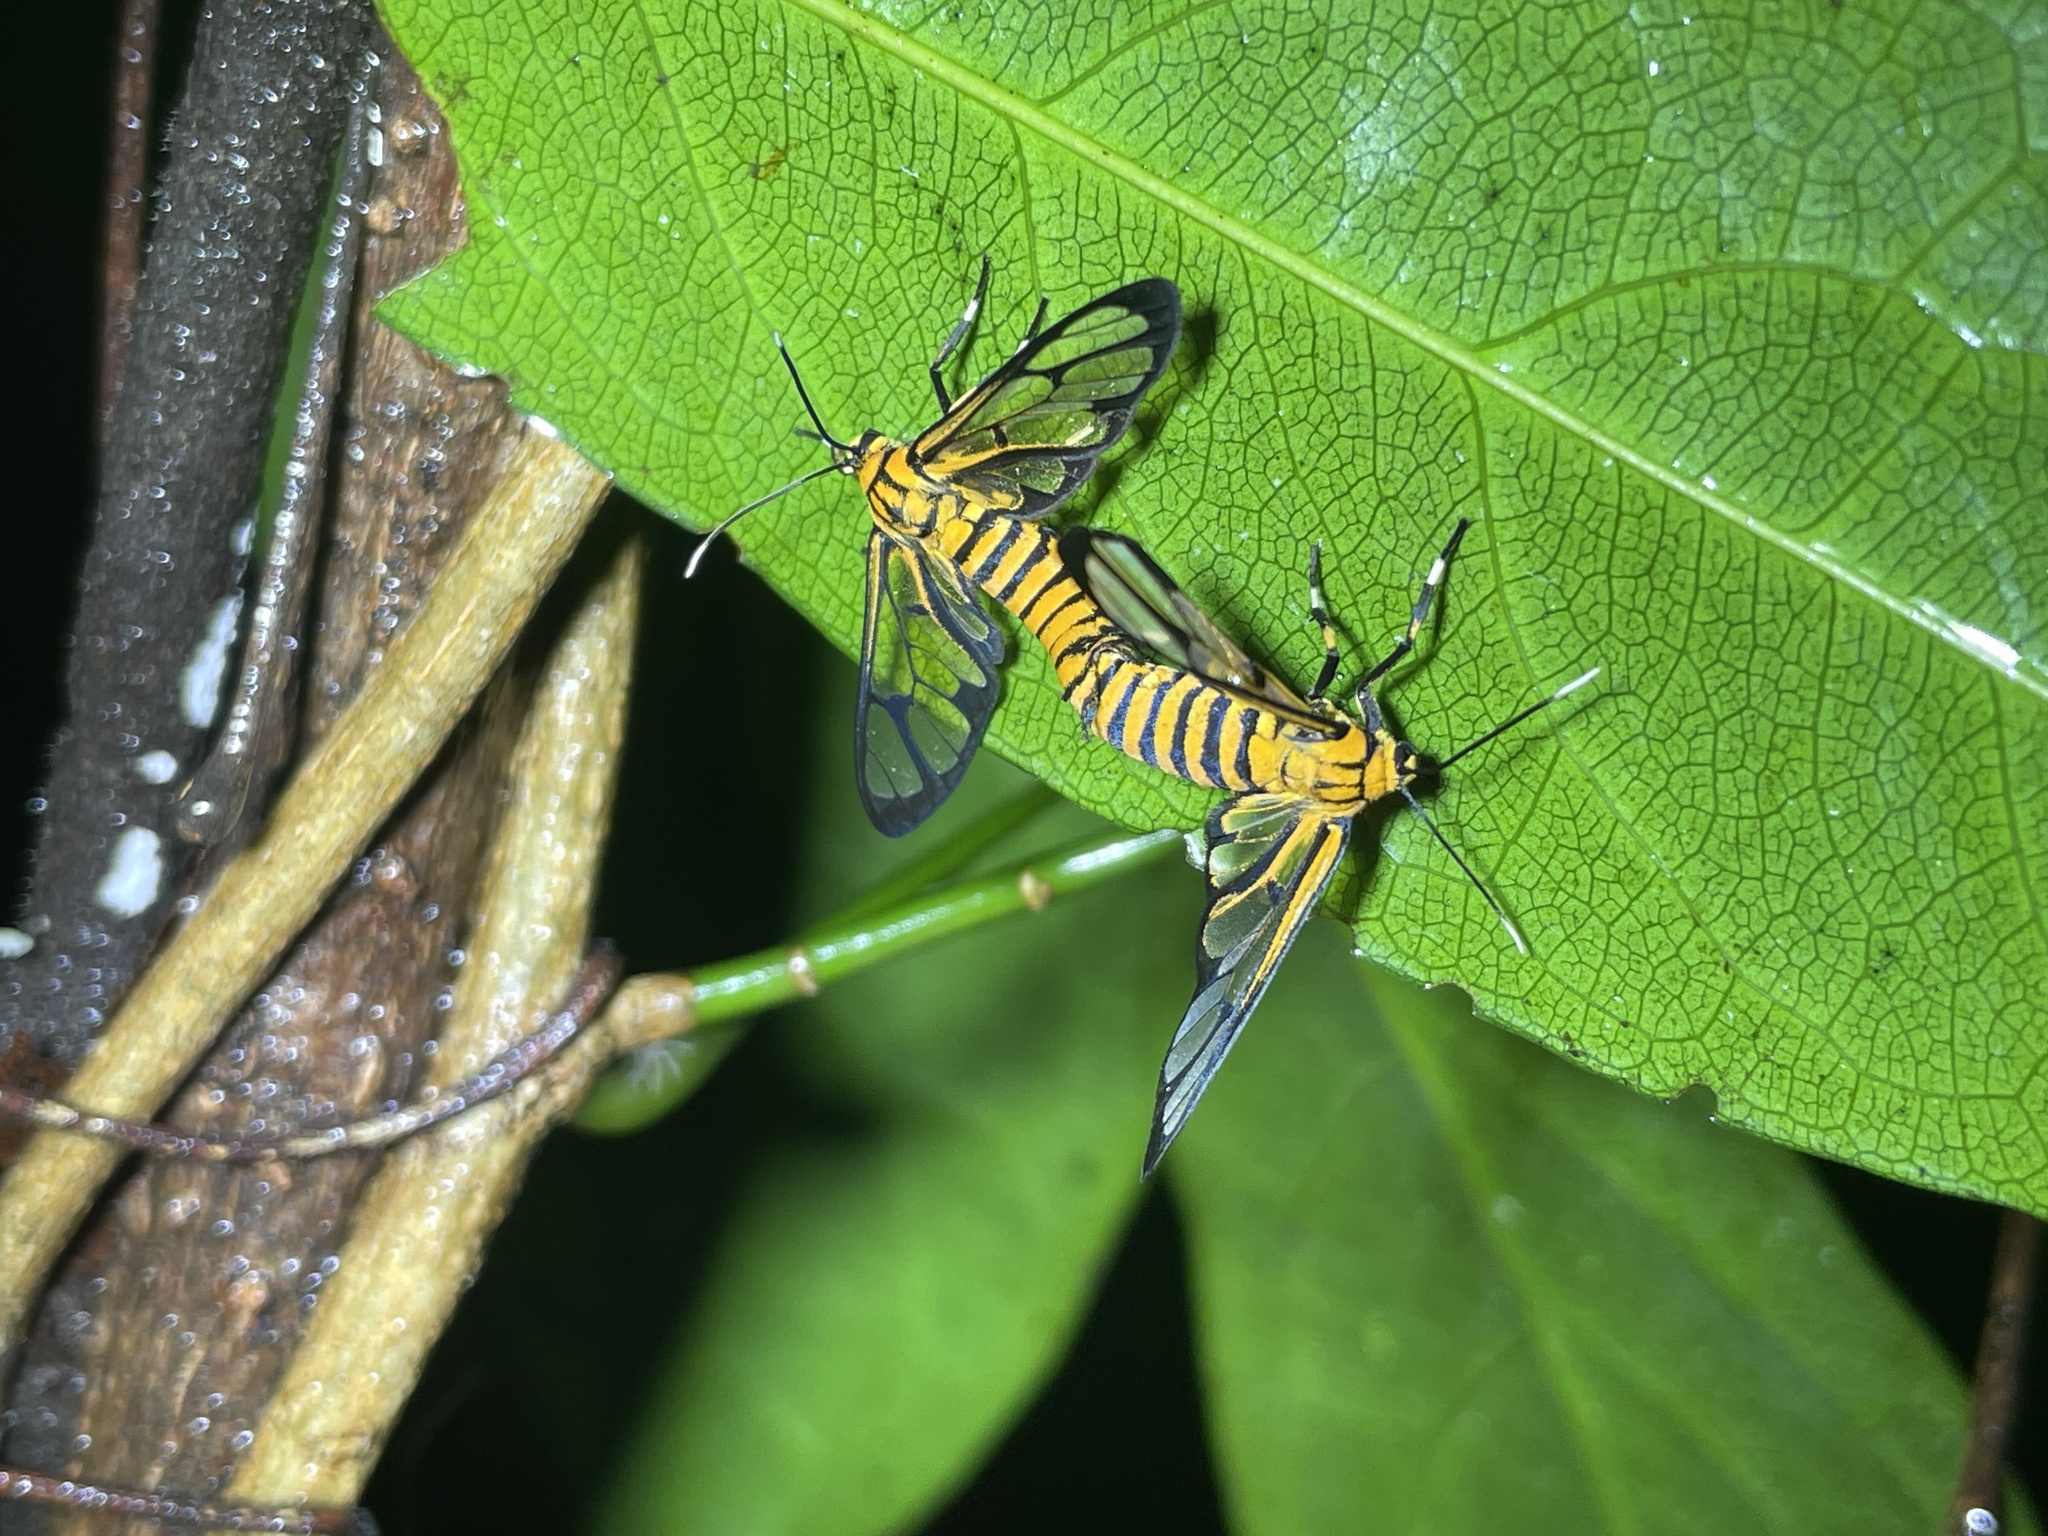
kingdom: Animalia
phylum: Arthropoda
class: Insecta
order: Lepidoptera
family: Erebidae
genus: Amata
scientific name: Amata grotei
